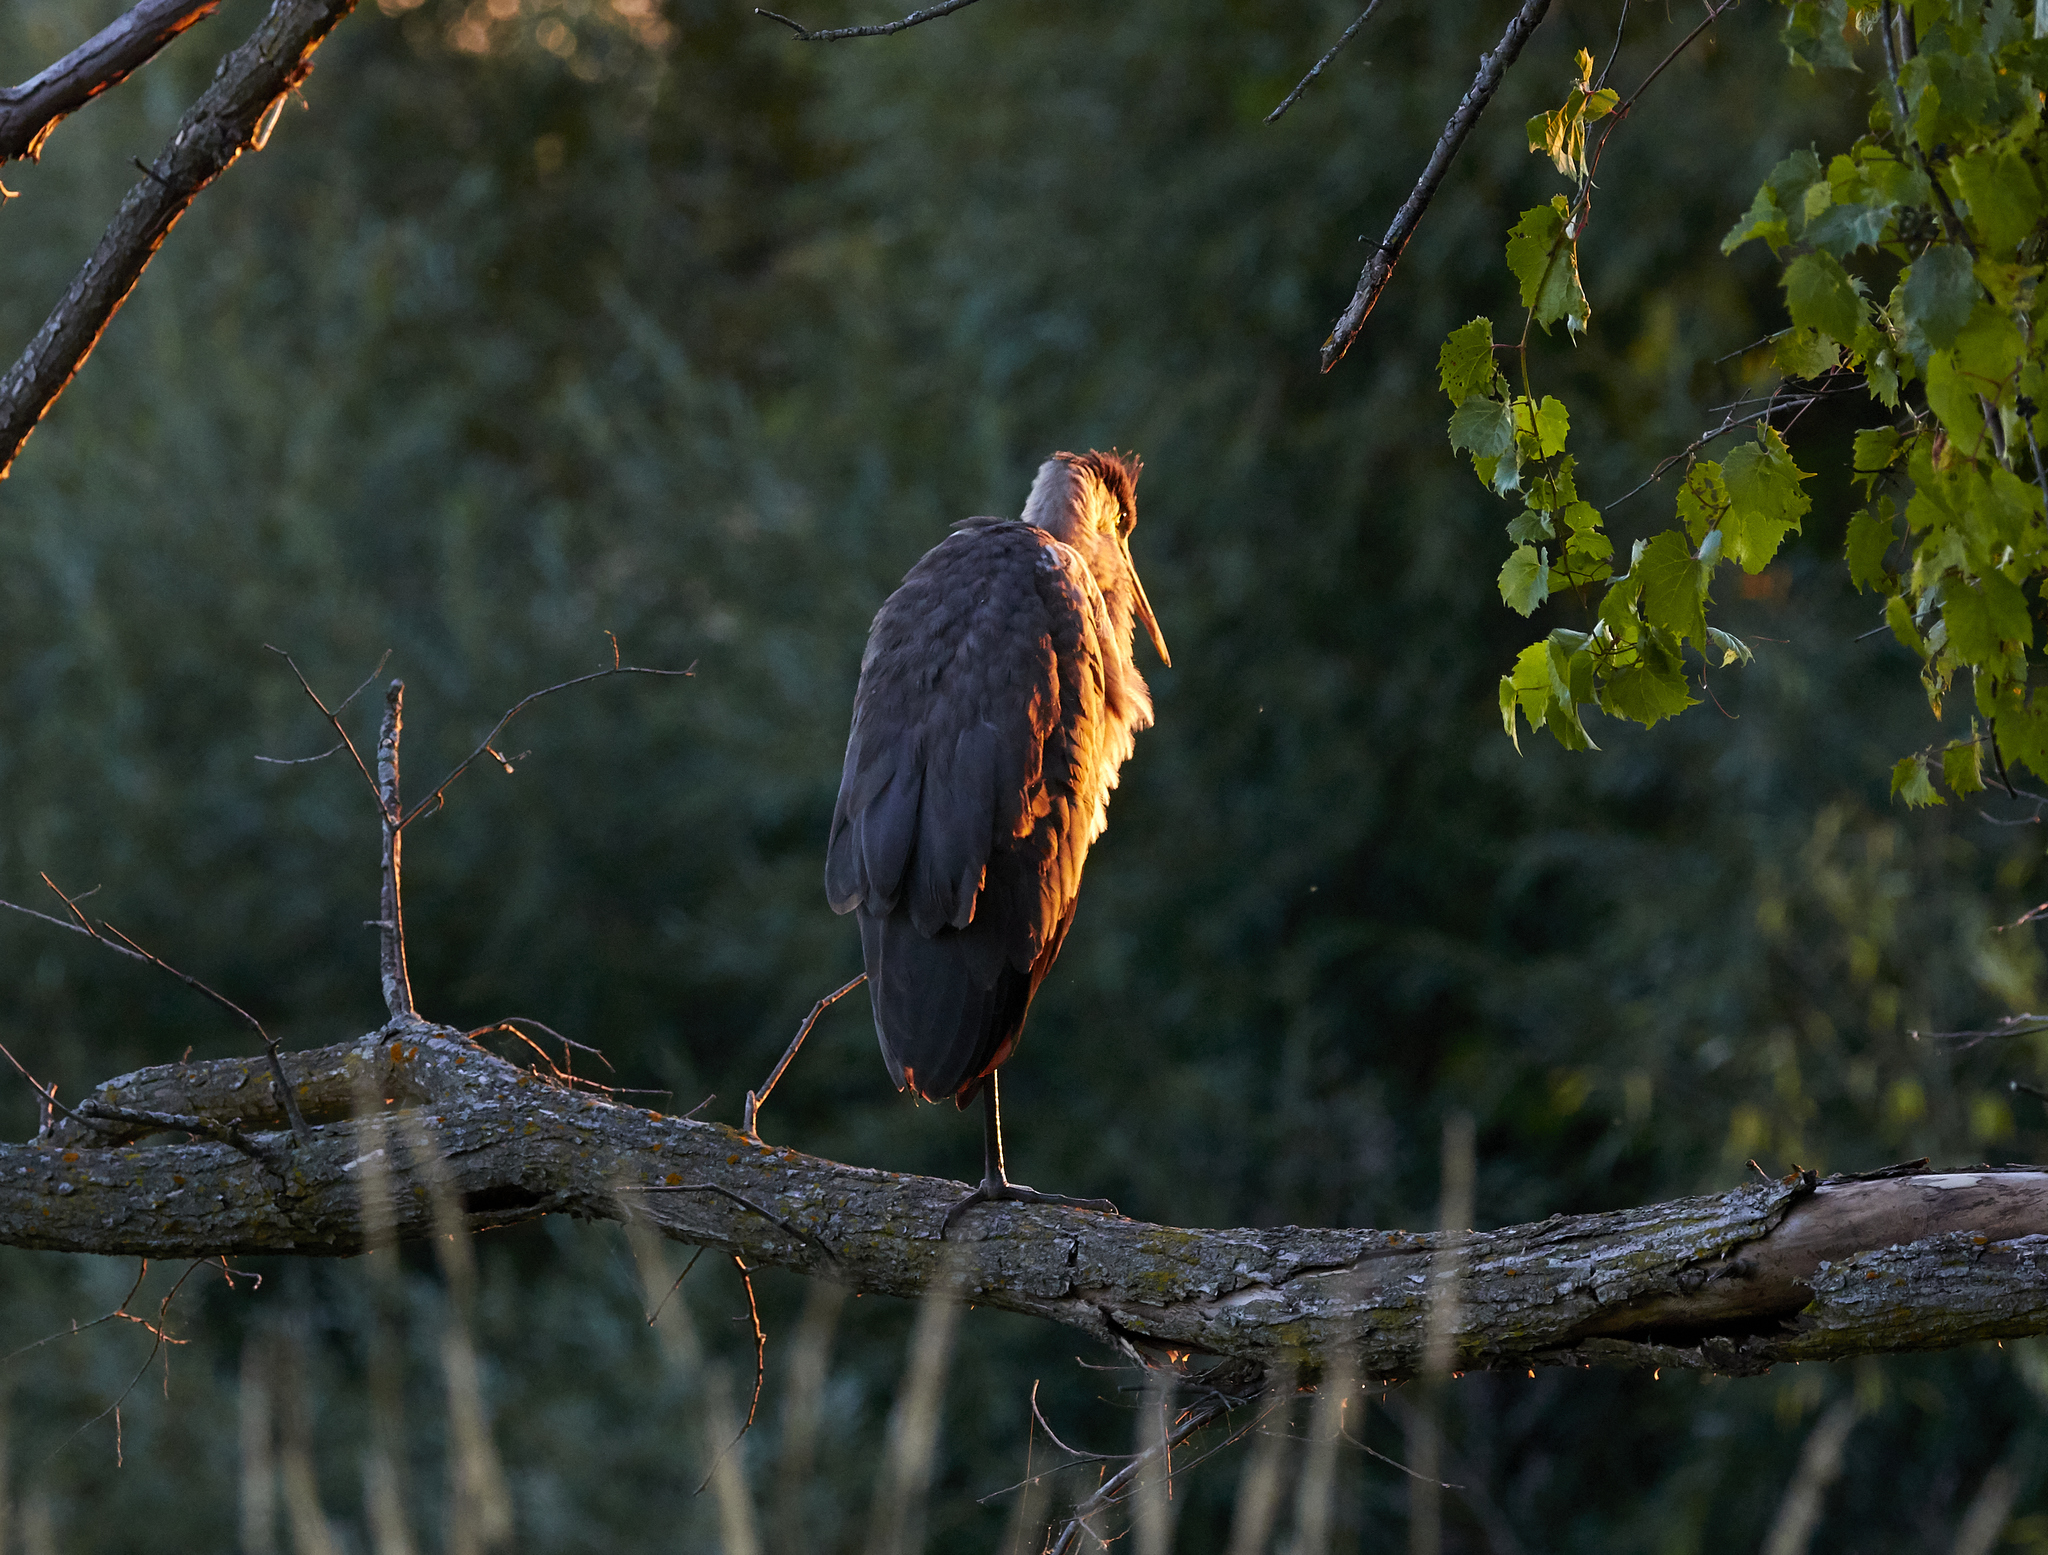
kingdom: Animalia
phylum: Chordata
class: Aves
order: Pelecaniformes
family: Ardeidae
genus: Ardea
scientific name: Ardea herodias
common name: Great blue heron
